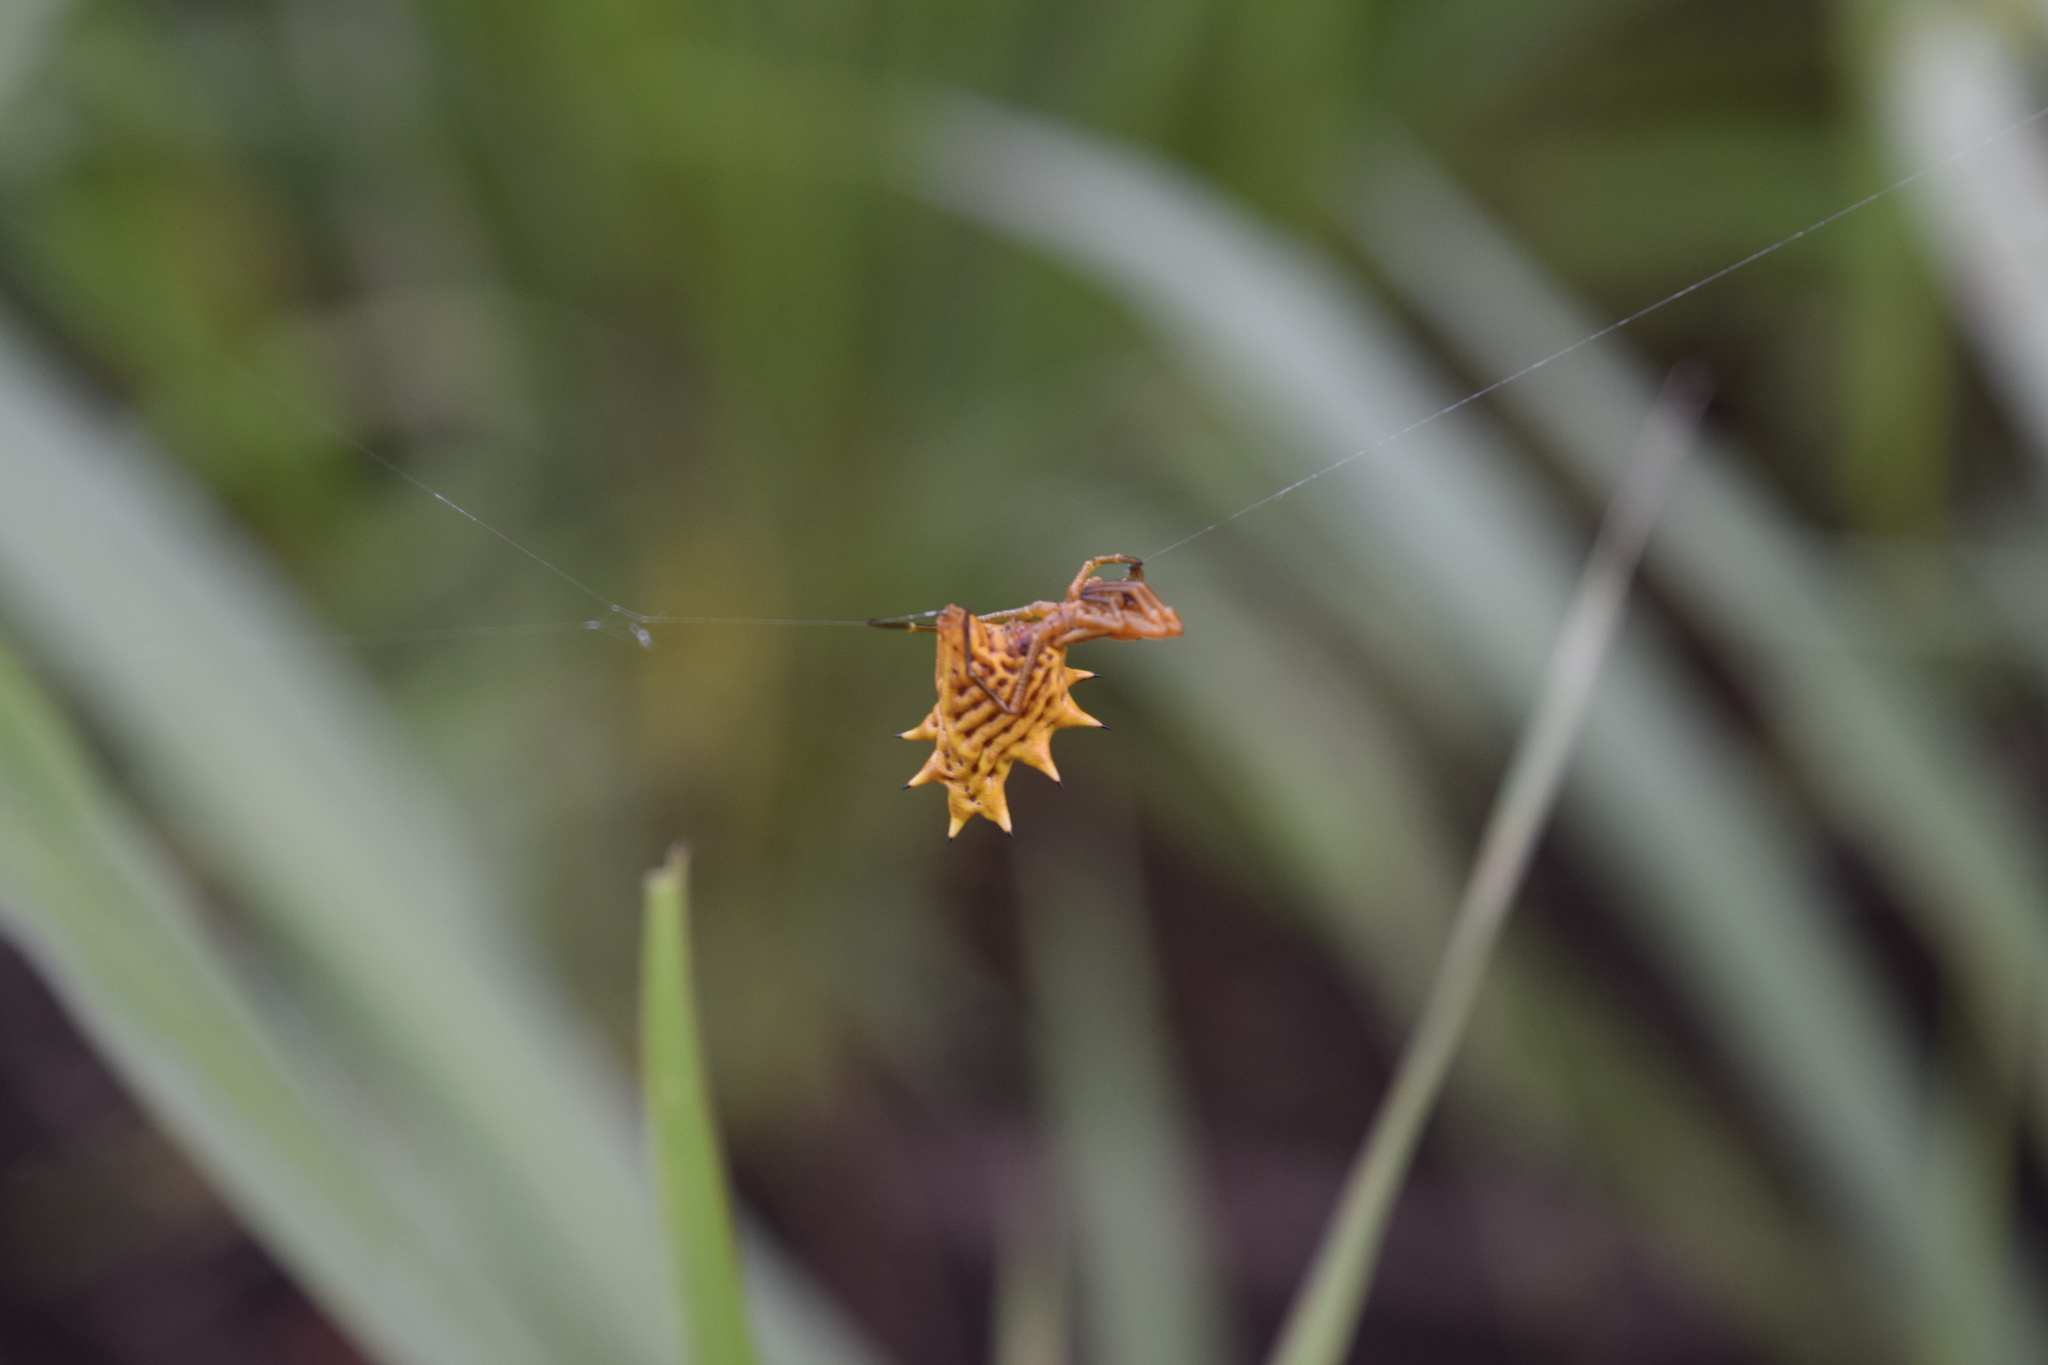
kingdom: Animalia
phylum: Arthropoda
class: Arachnida
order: Araneae
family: Araneidae
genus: Micrathena
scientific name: Micrathena gracilis
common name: Orb weavers
